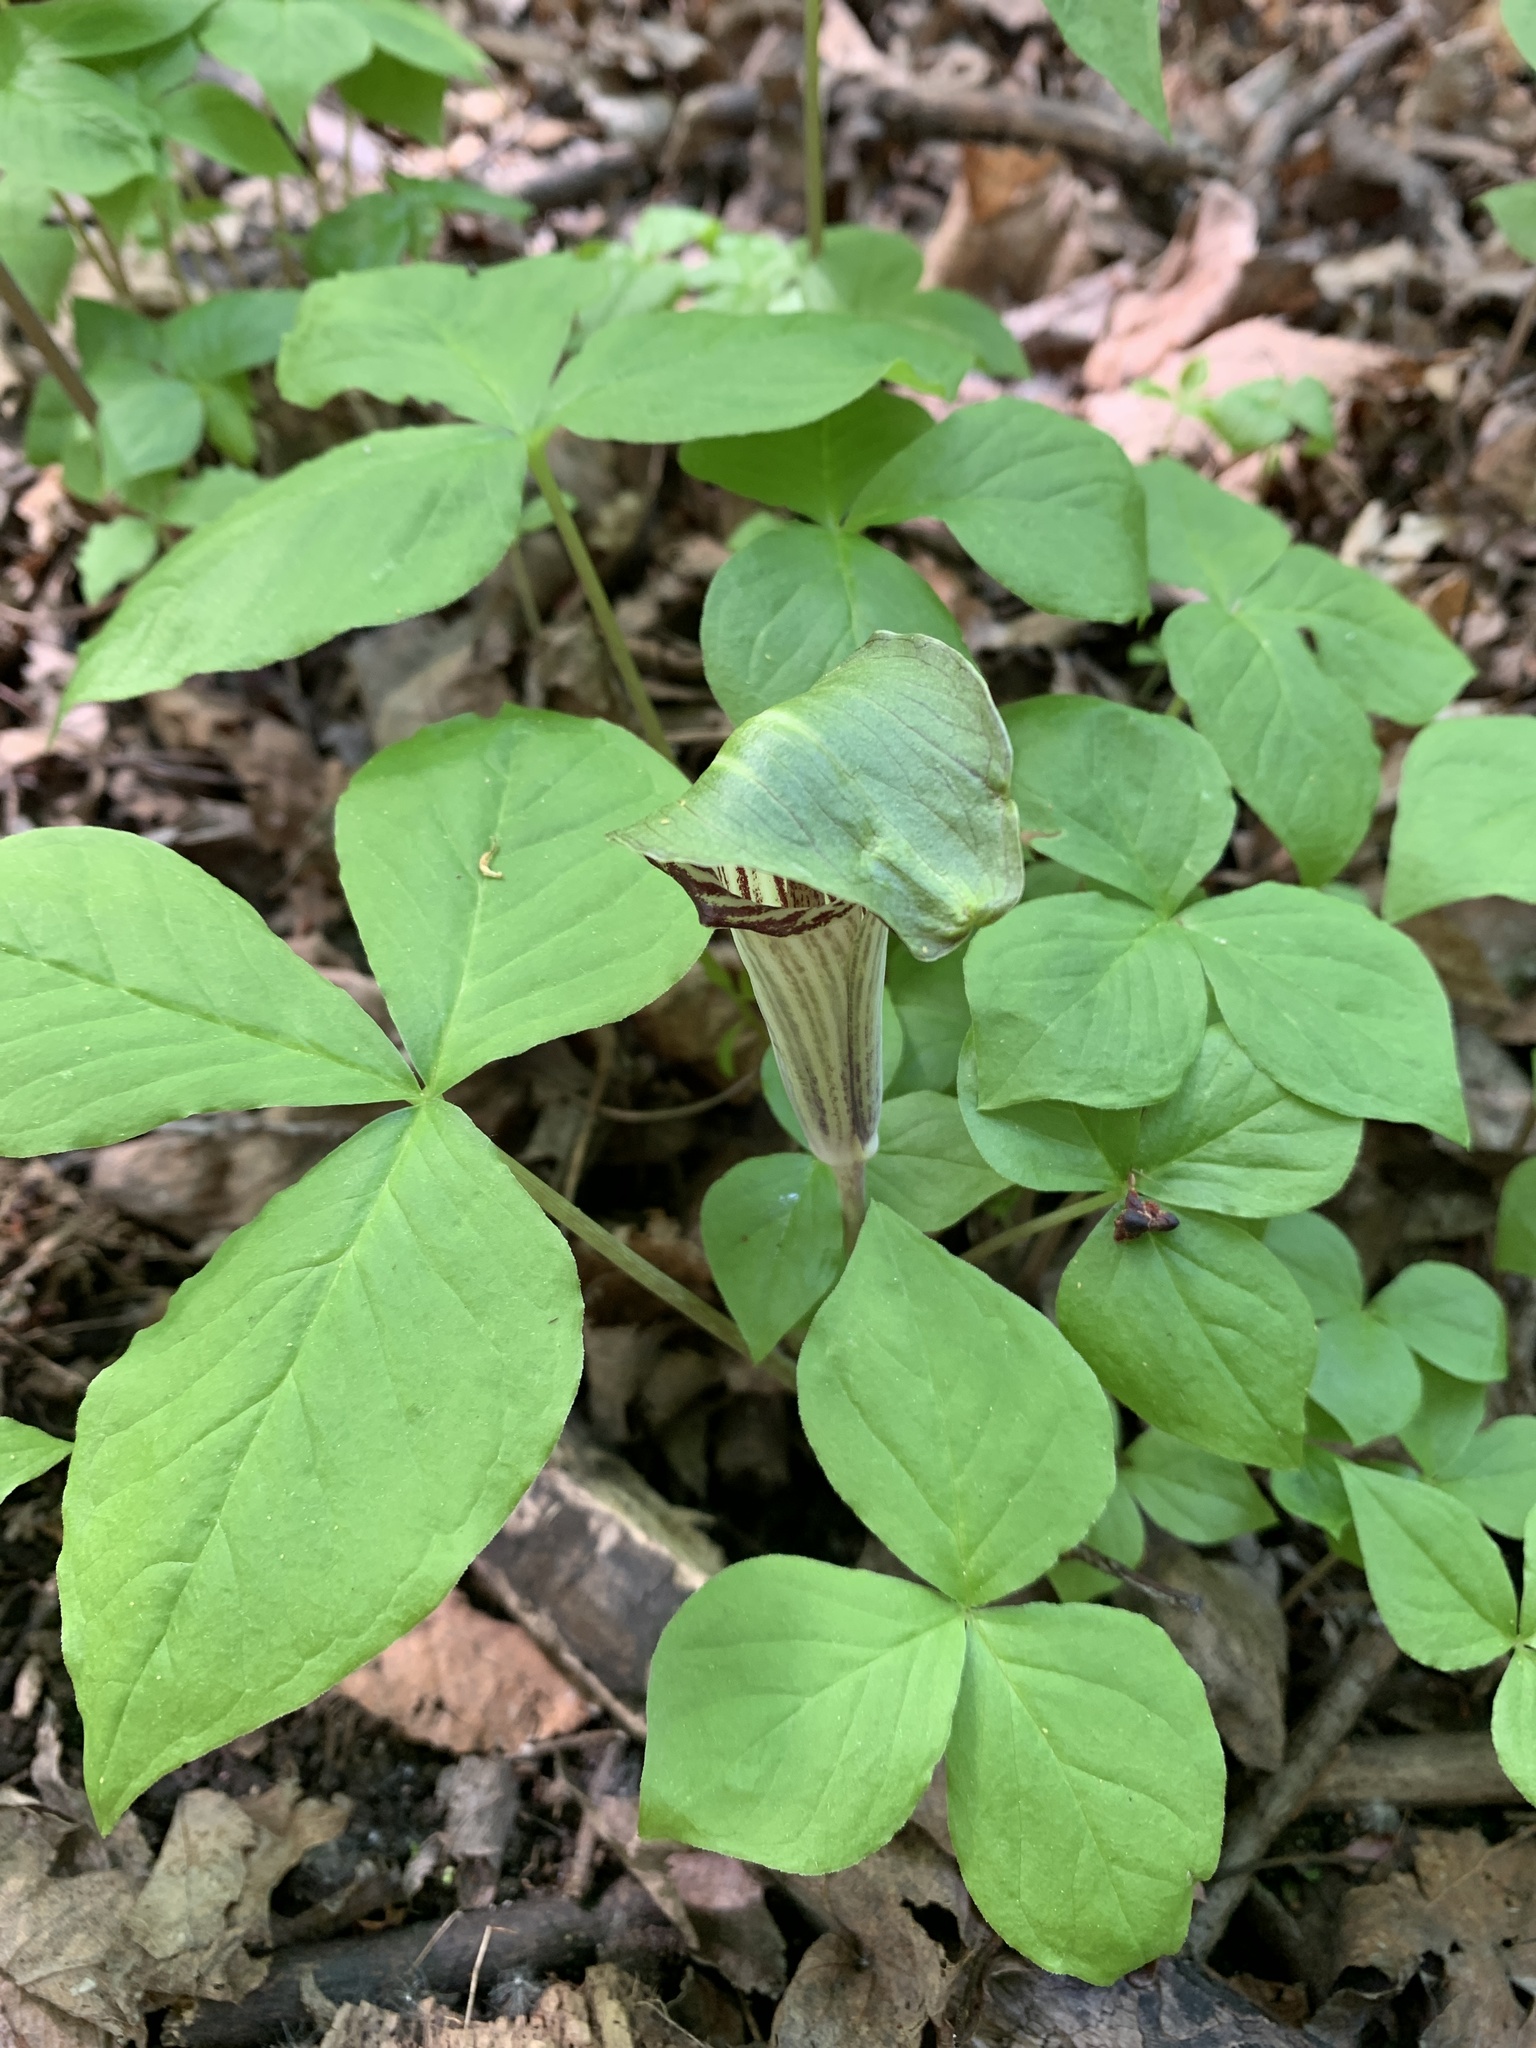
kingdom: Plantae
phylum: Tracheophyta
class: Liliopsida
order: Alismatales
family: Araceae
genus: Arisaema
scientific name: Arisaema triphyllum
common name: Jack-in-the-pulpit
